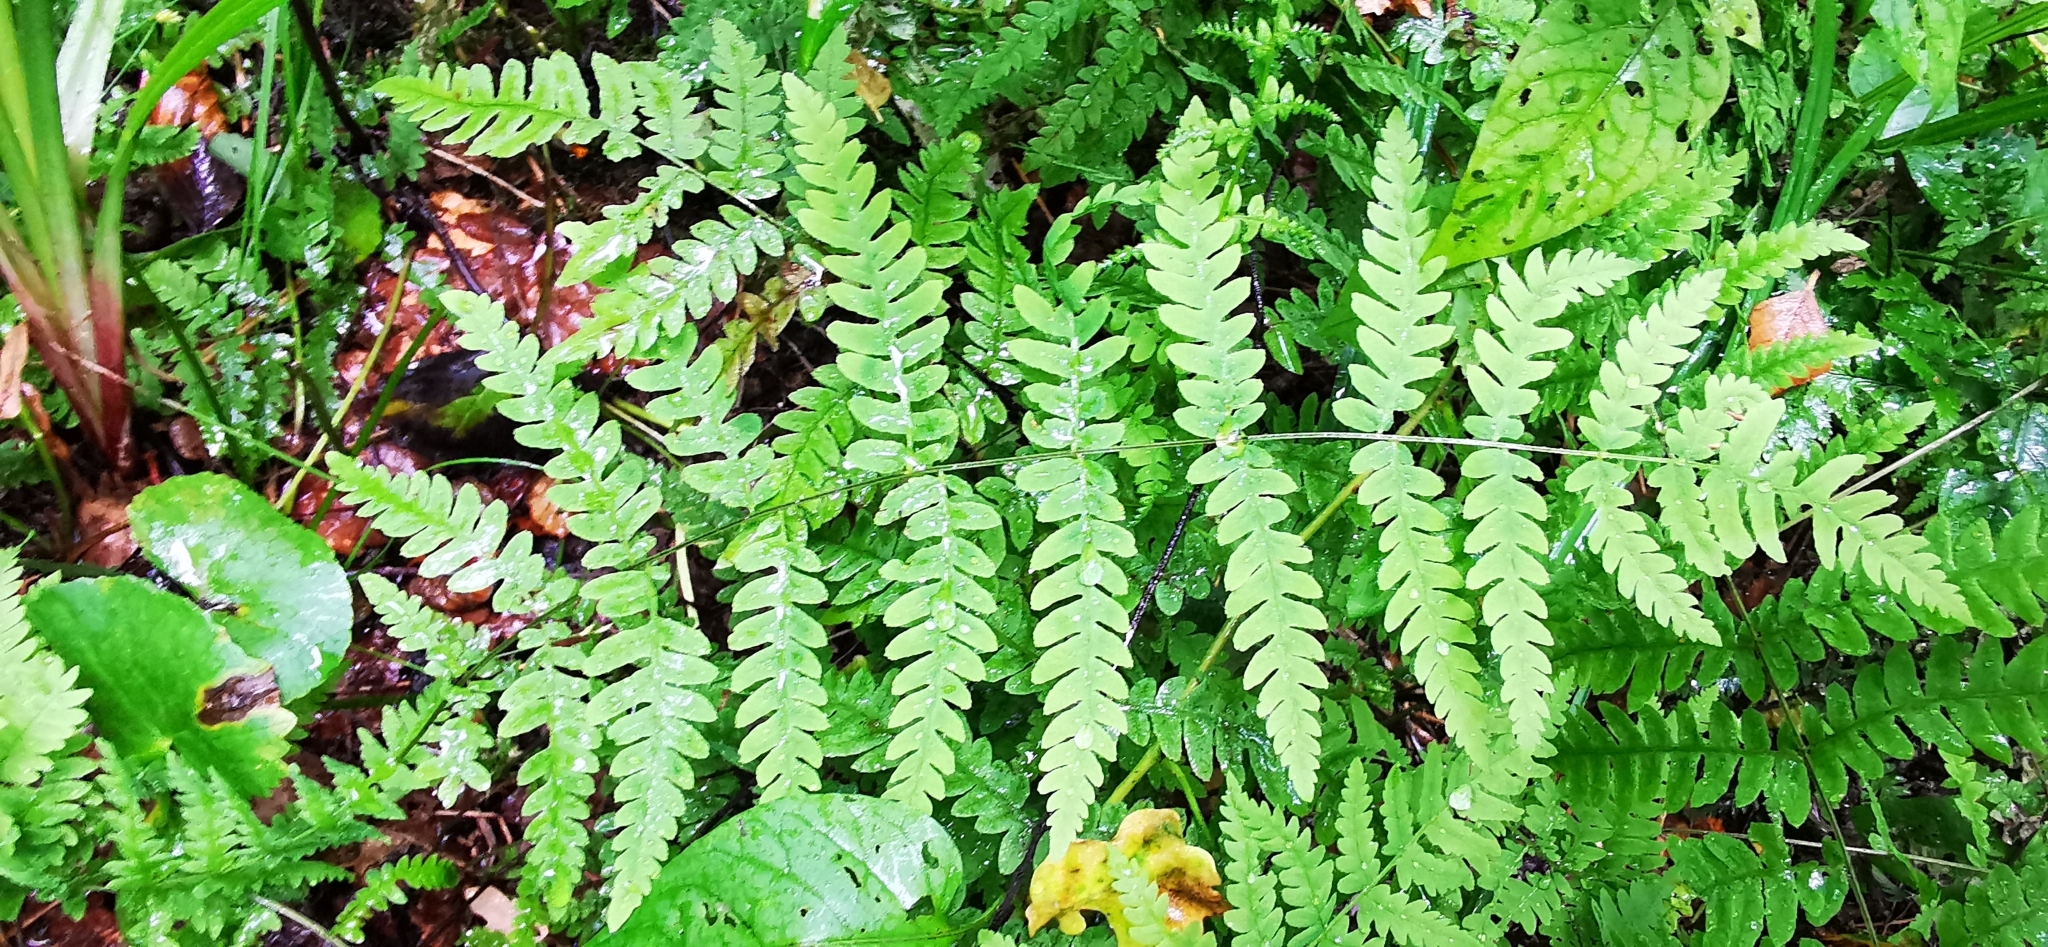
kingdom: Plantae
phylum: Tracheophyta
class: Polypodiopsida
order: Polypodiales
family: Thelypteridaceae
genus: Thelypteris
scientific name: Thelypteris palustris
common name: Marsh fern
